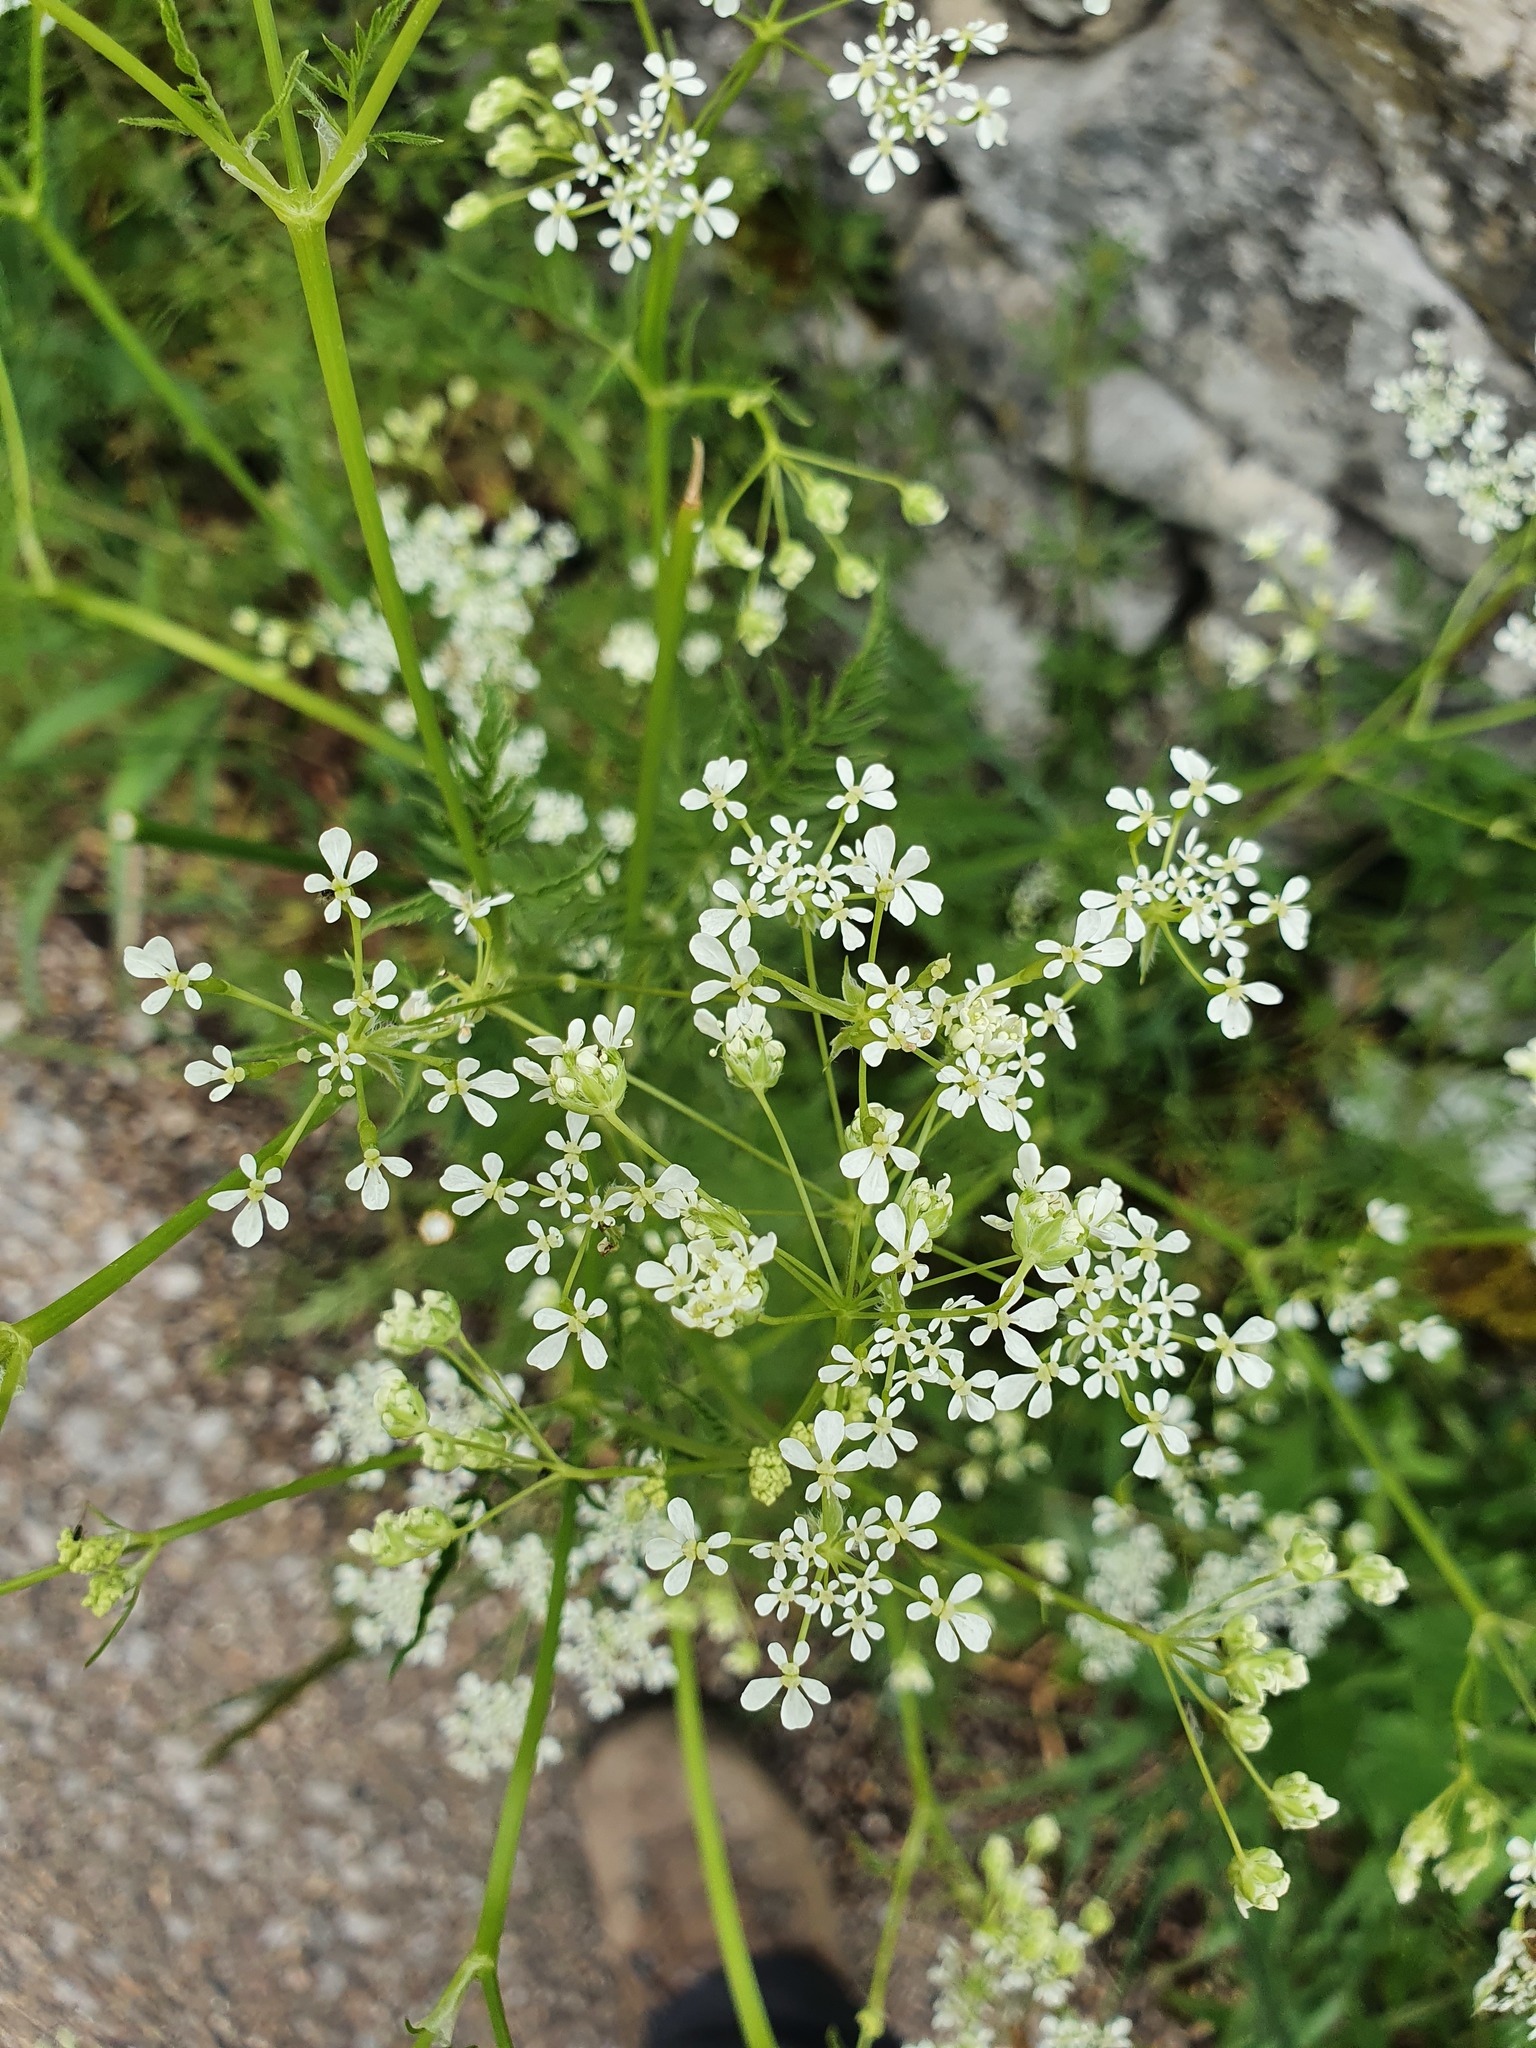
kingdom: Plantae
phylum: Tracheophyta
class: Magnoliopsida
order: Apiales
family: Apiaceae
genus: Anthriscus
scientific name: Anthriscus sylvestris
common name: Cow parsley
